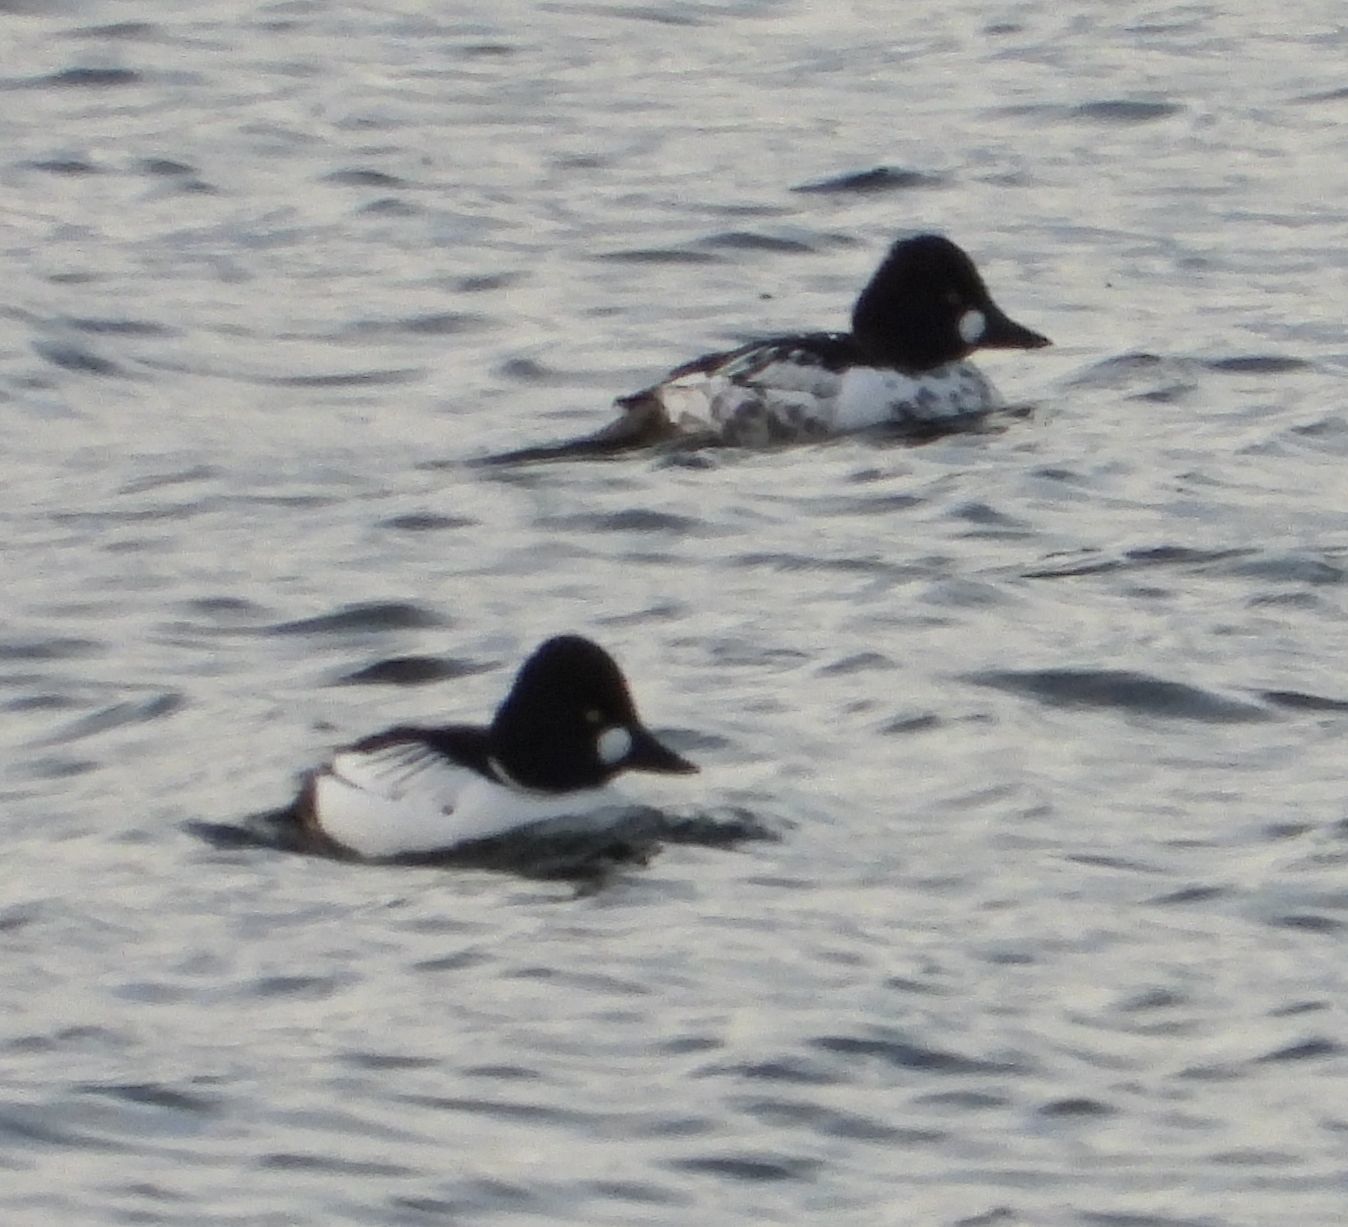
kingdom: Animalia
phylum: Chordata
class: Aves
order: Anseriformes
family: Anatidae
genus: Bucephala
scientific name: Bucephala clangula
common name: Common goldeneye
